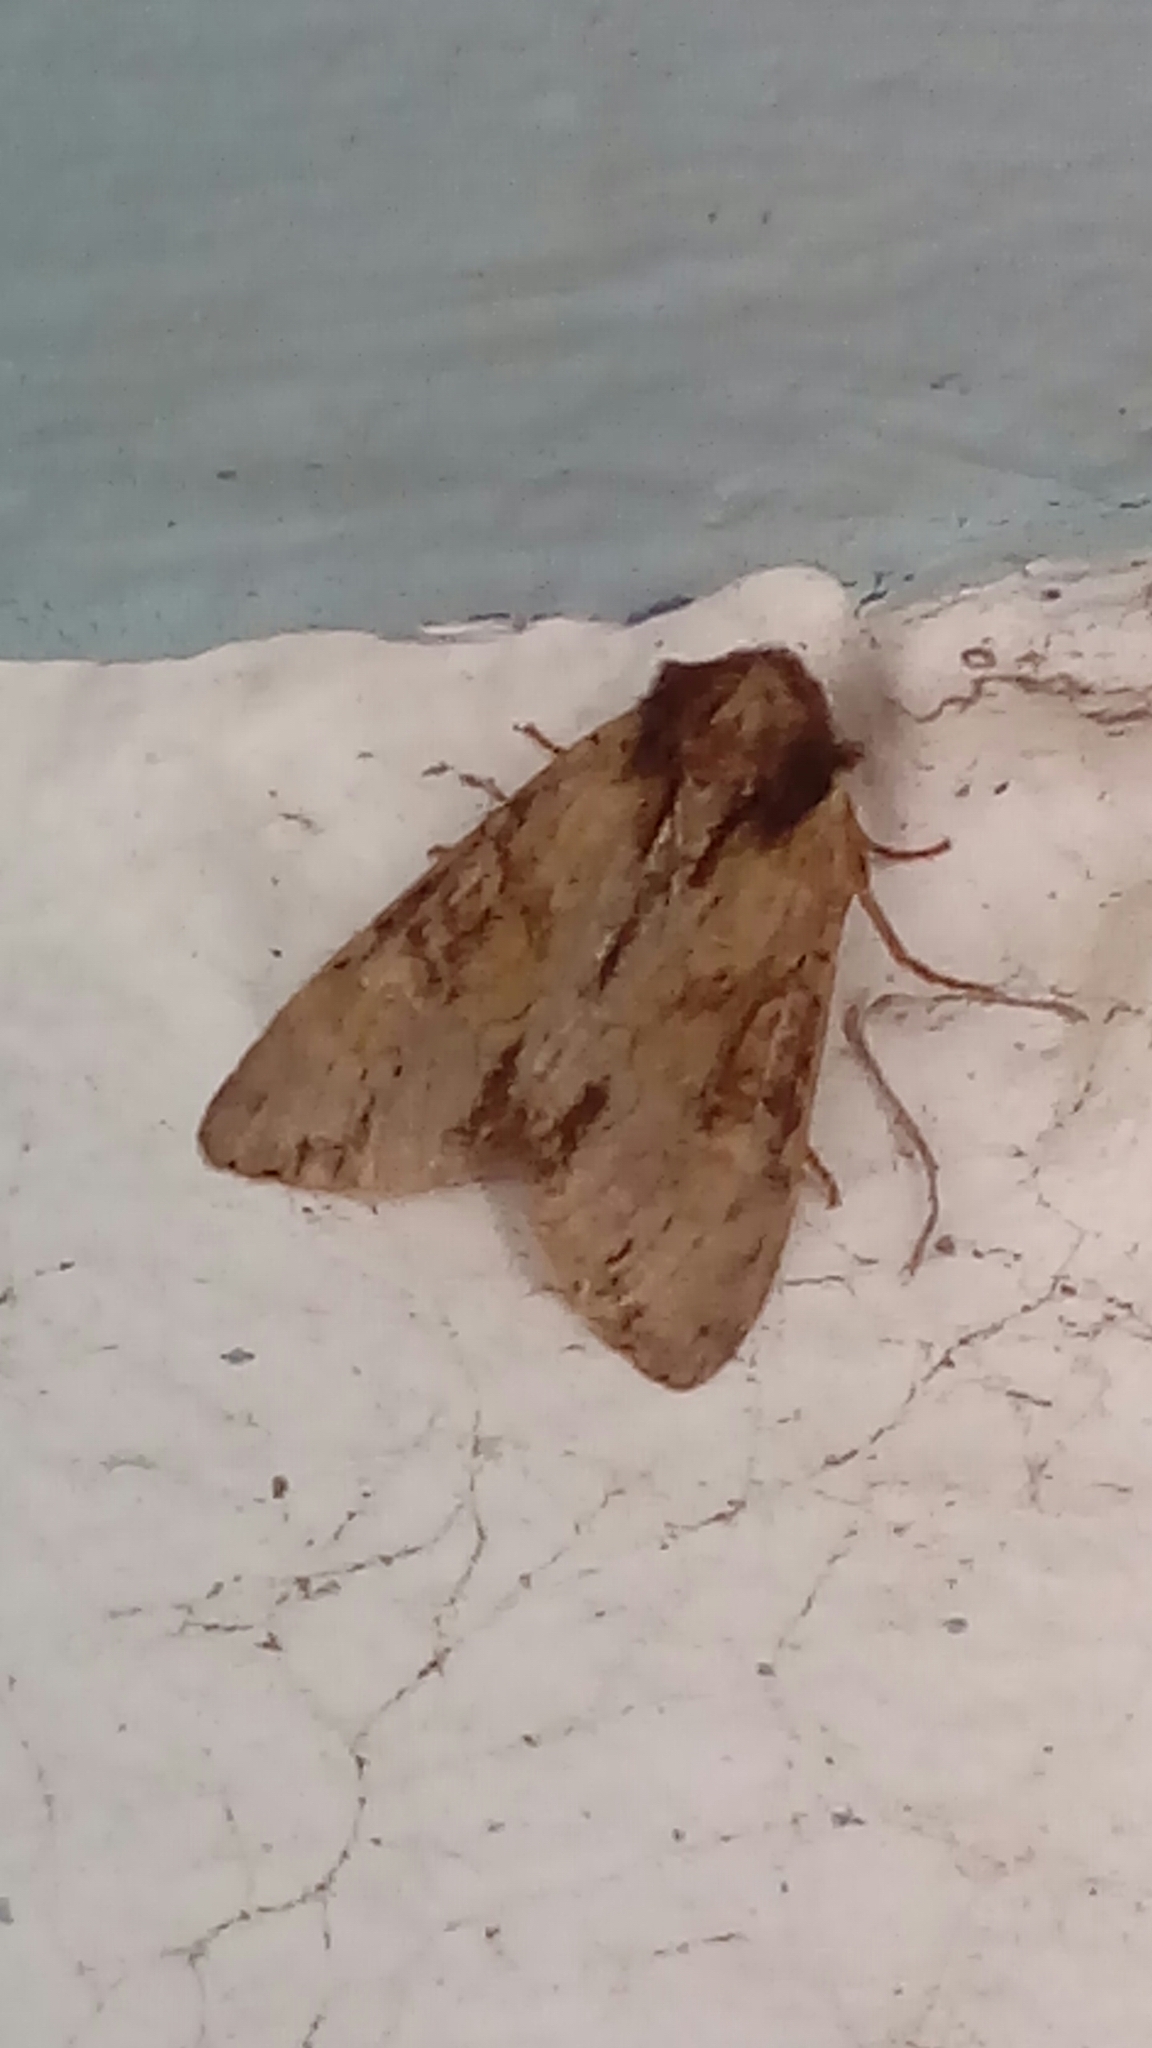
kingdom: Animalia
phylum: Arthropoda
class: Insecta
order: Lepidoptera
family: Noctuidae
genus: Apamea
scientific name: Apamea crenata
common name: Clouded-bordered brindle
